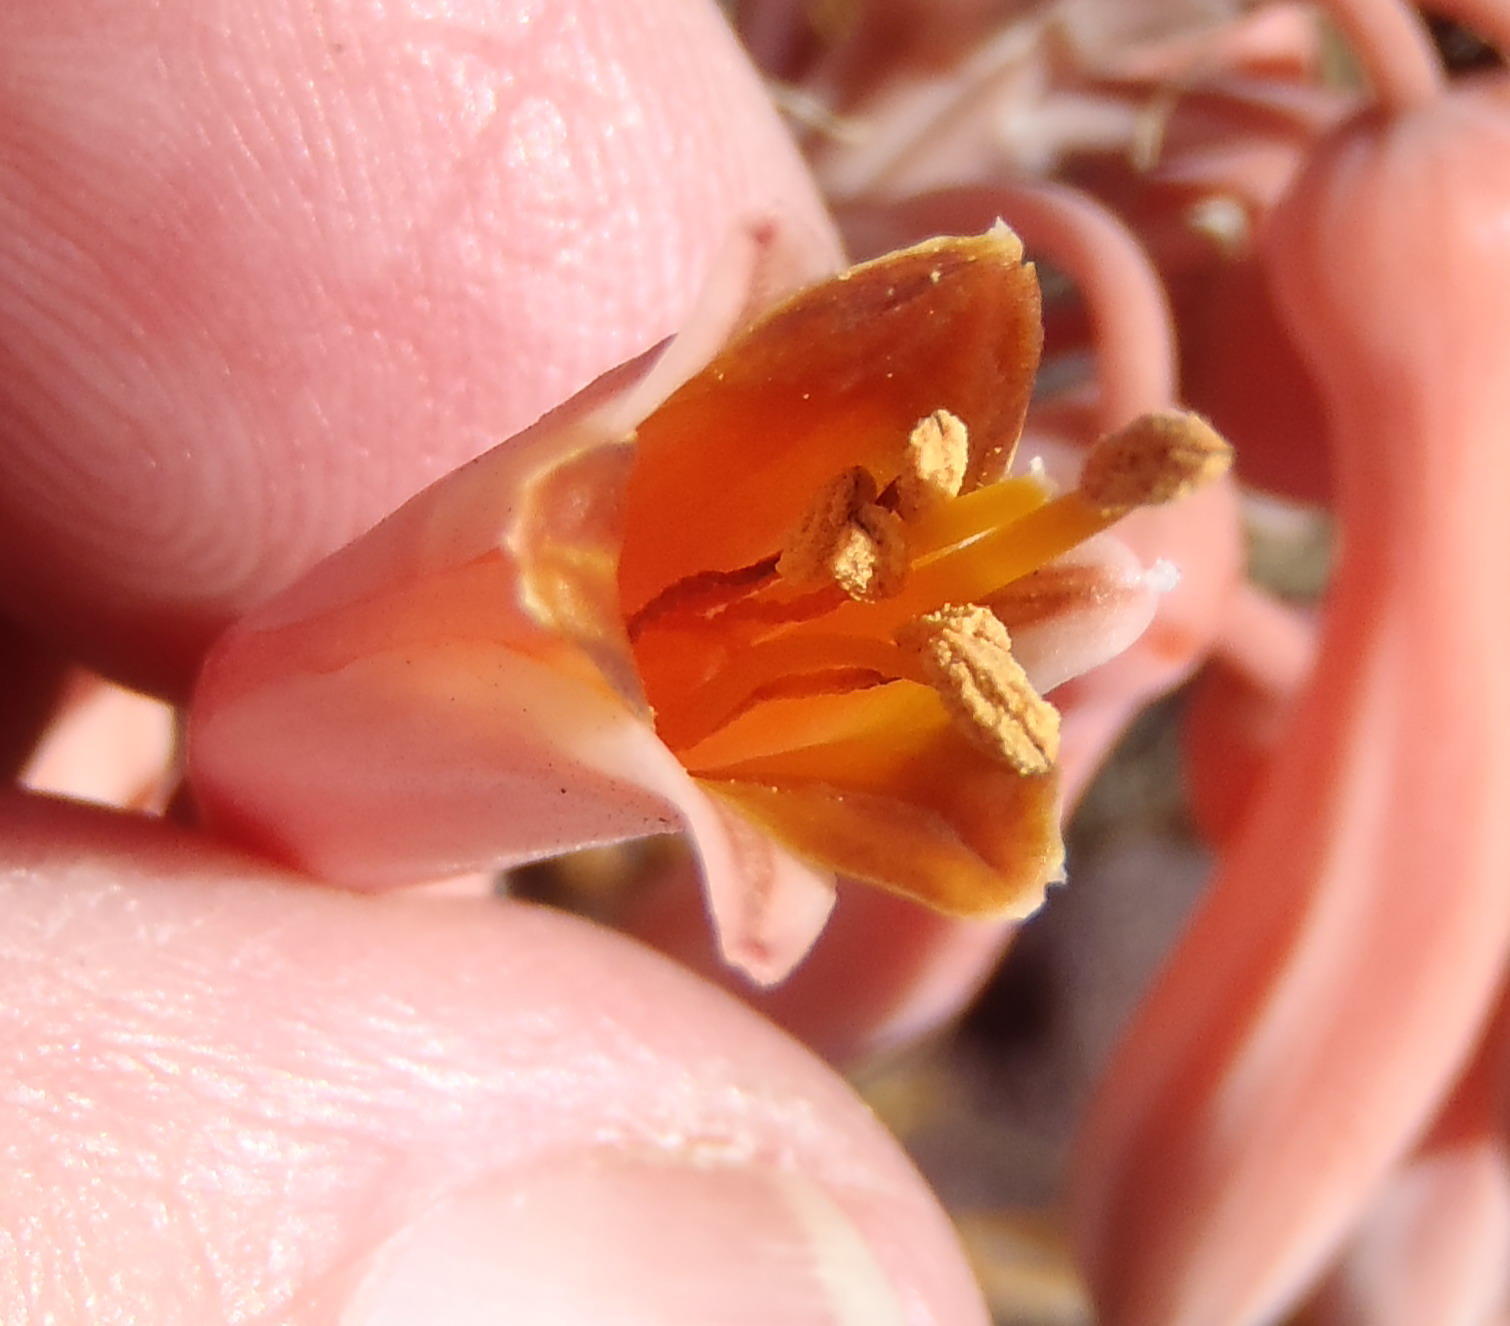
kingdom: Plantae
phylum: Tracheophyta
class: Liliopsida
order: Asparagales
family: Asphodelaceae
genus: Aloe
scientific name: Aloe davyana
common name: Spotted aloe
